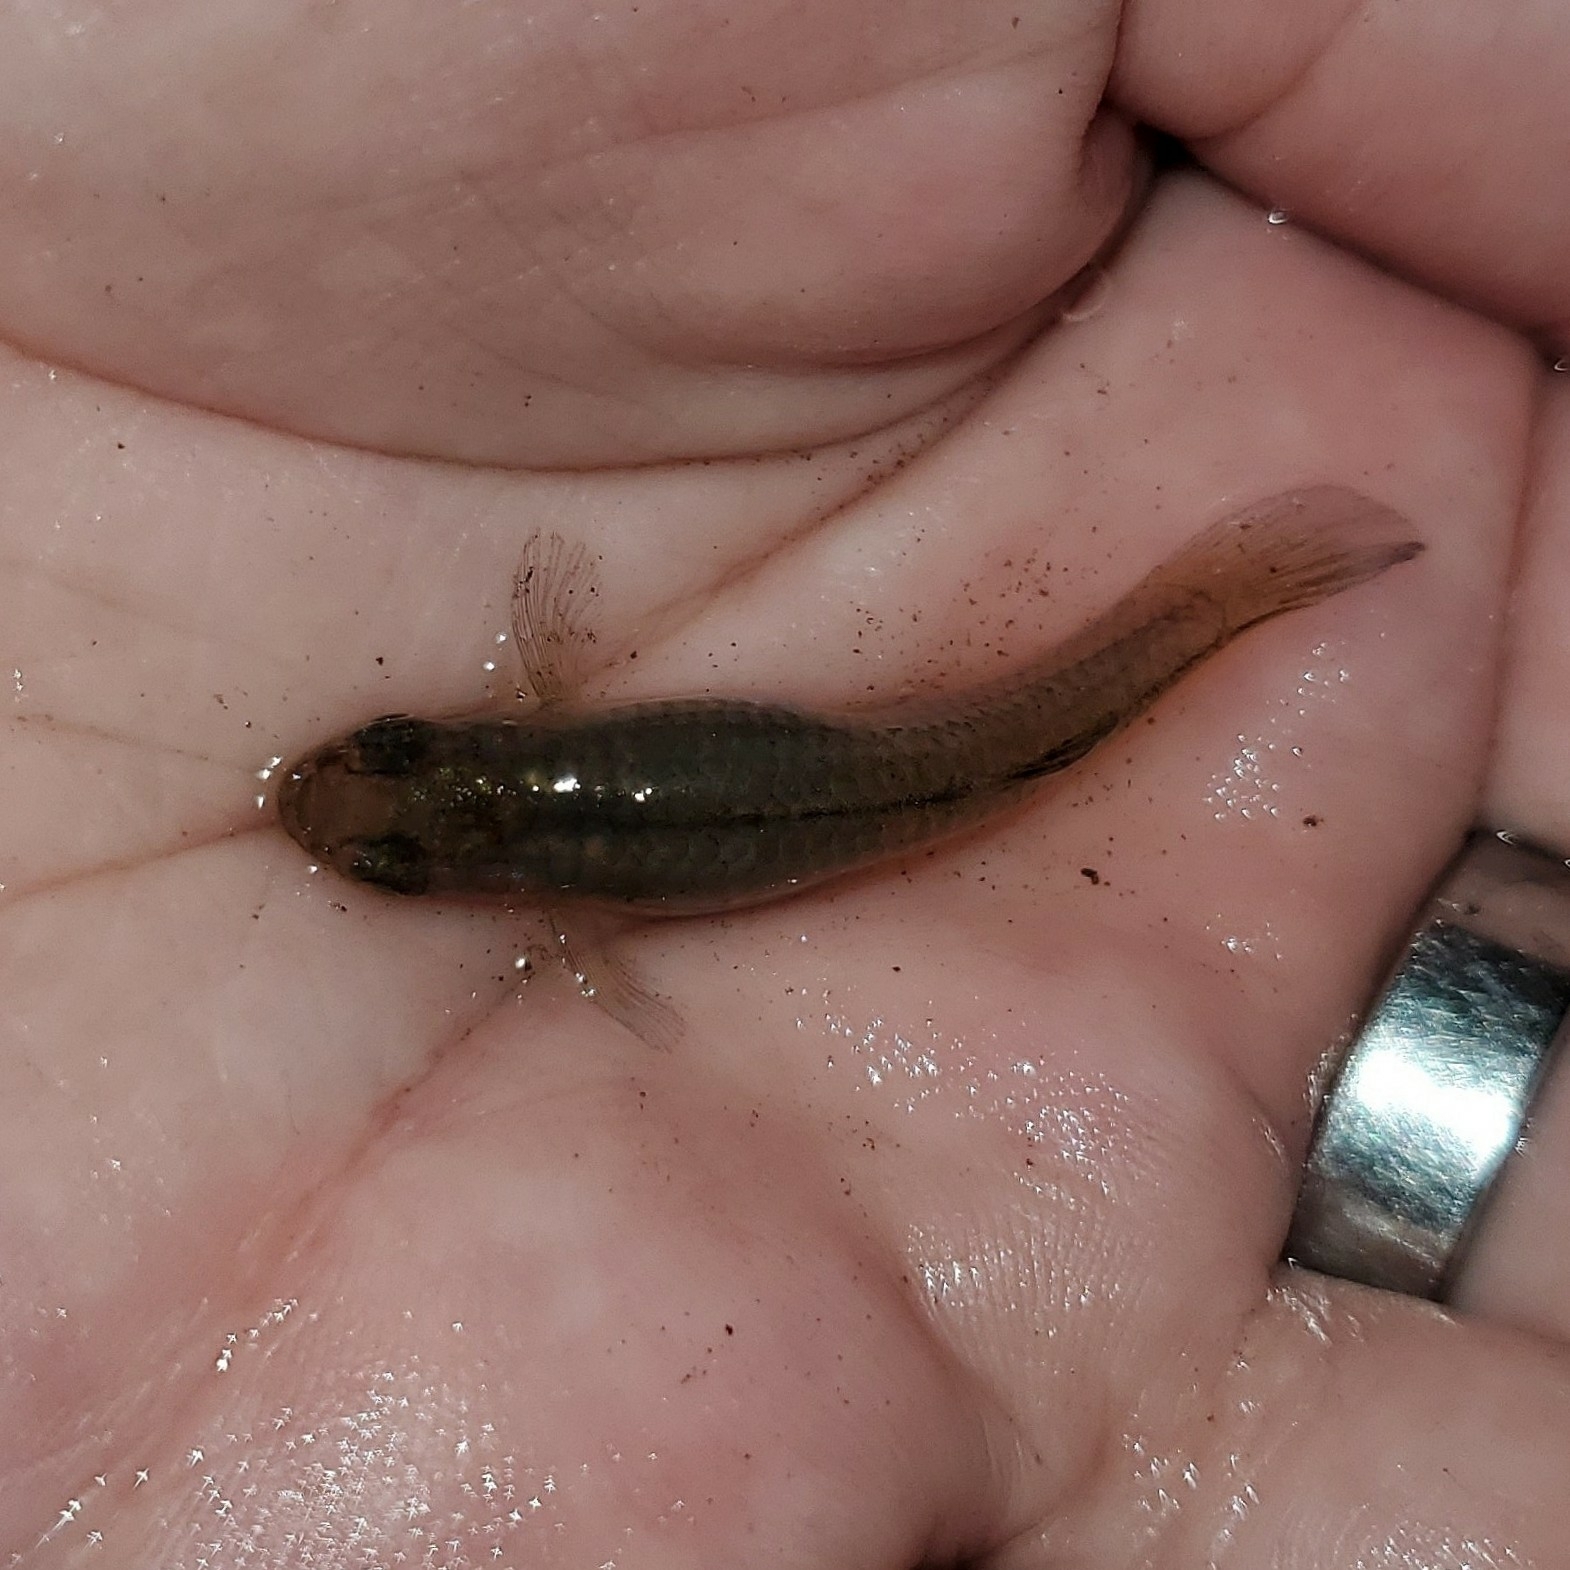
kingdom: Animalia
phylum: Chordata
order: Cyprinodontiformes
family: Poeciliidae
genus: Gambusia
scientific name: Gambusia affinis
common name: Mosquitofish
